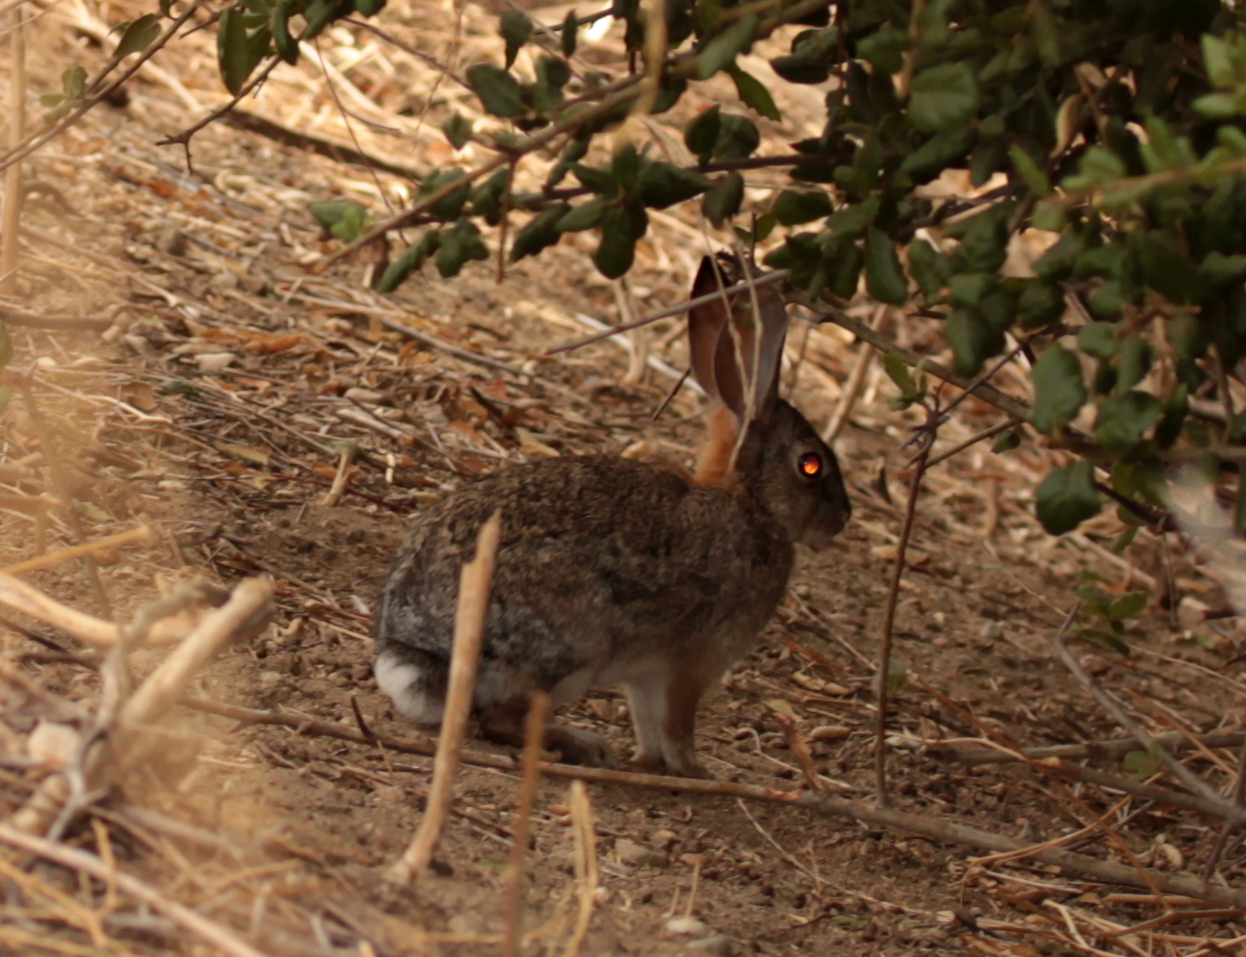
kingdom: Animalia
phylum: Chordata
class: Mammalia
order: Lagomorpha
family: Leporidae
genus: Sylvilagus
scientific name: Sylvilagus audubonii
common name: Desert cottontail
